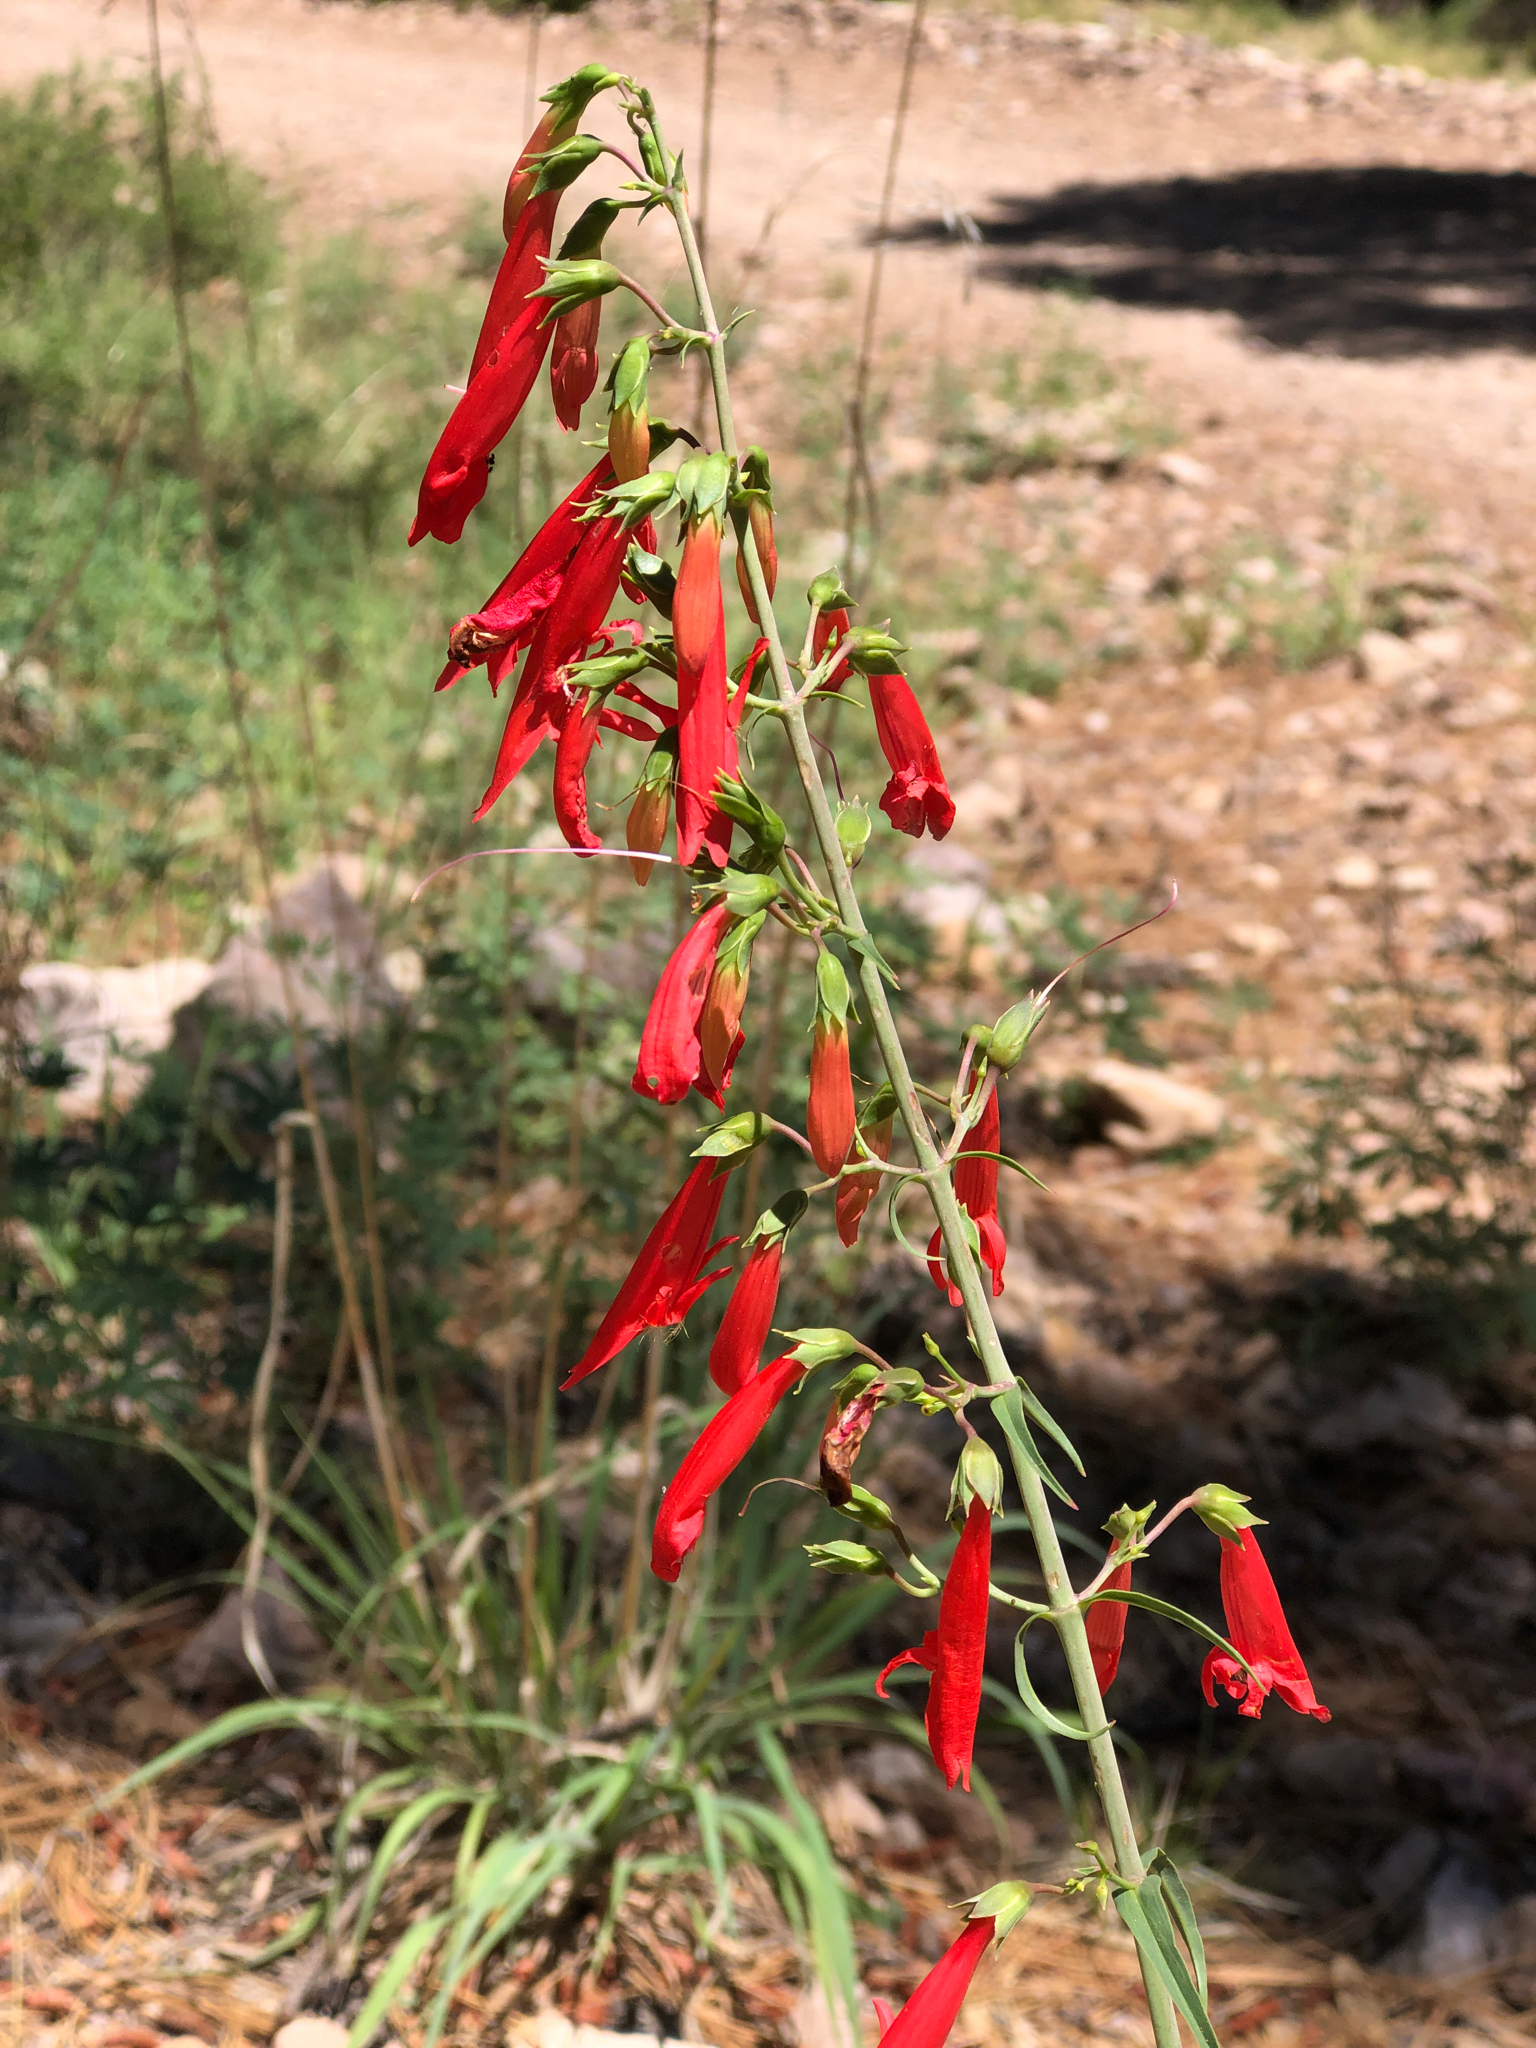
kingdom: Plantae
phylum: Tracheophyta
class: Magnoliopsida
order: Lamiales
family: Plantaginaceae
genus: Penstemon
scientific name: Penstemon barbatus
